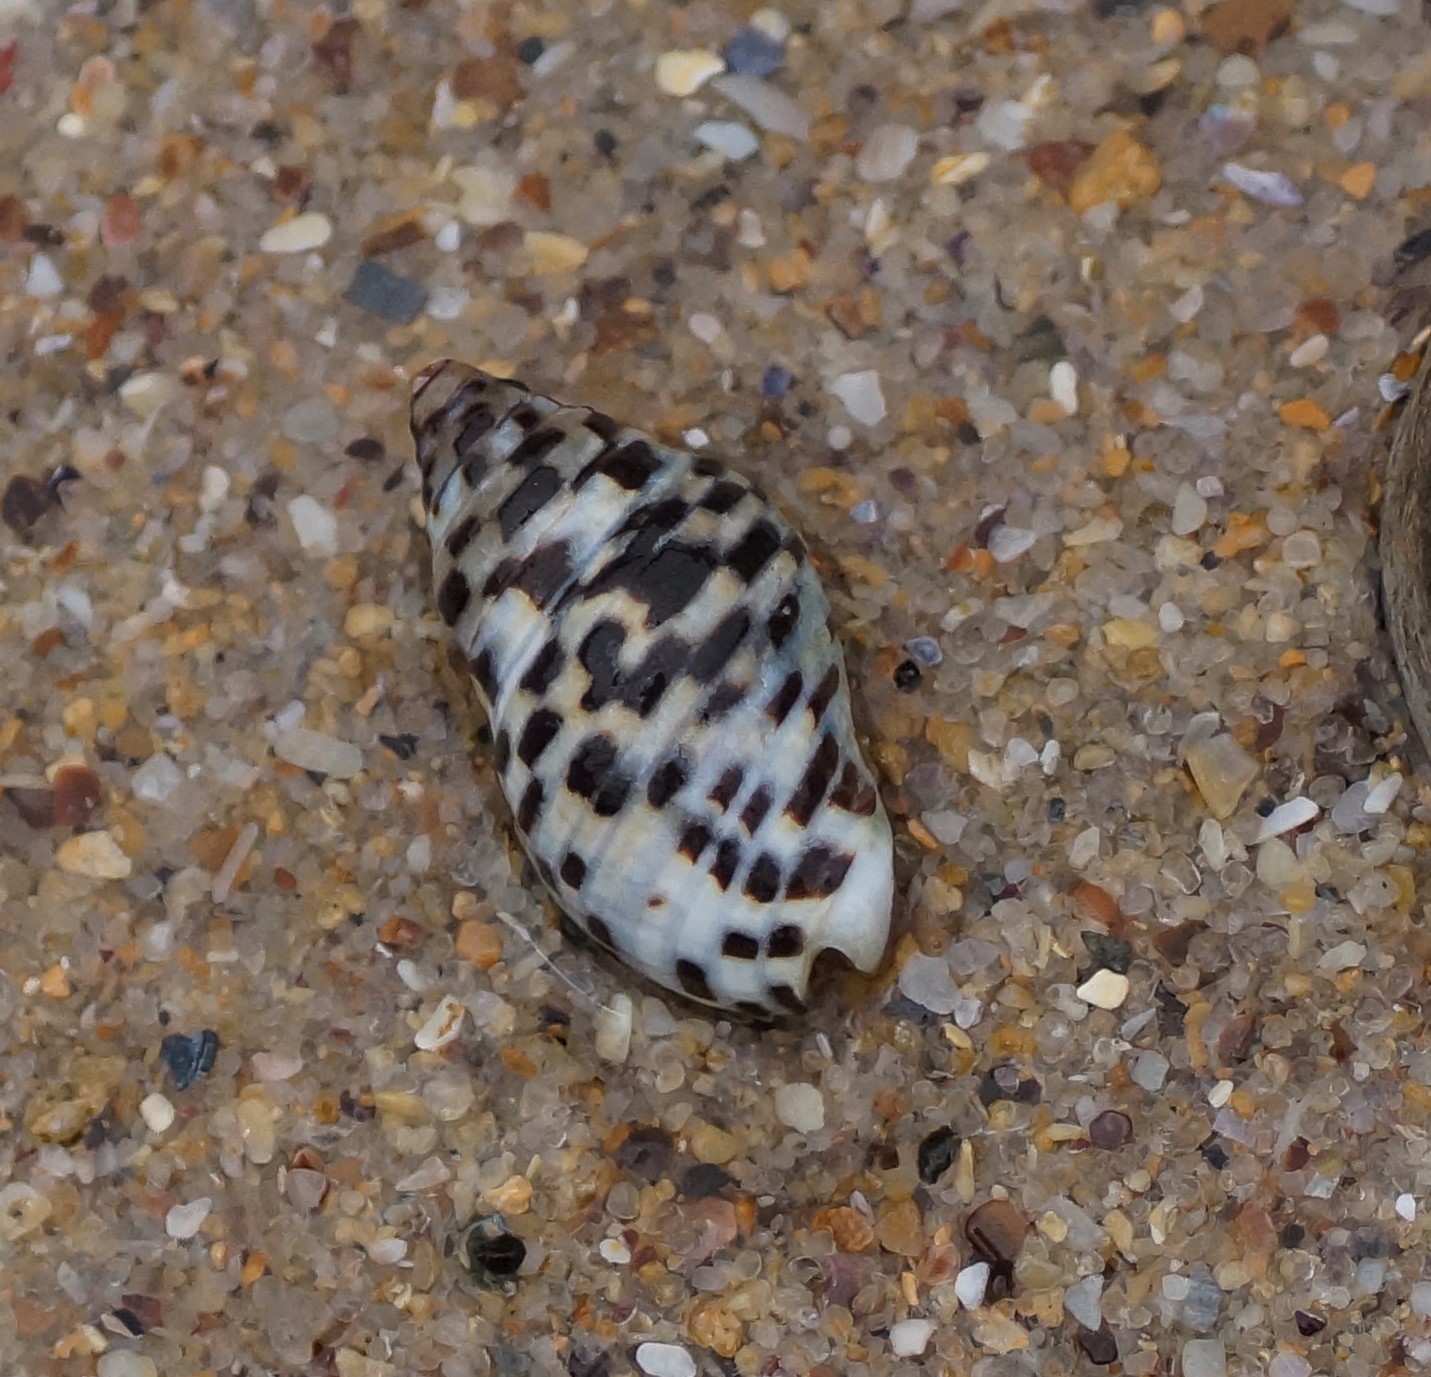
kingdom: Animalia
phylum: Mollusca
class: Gastropoda
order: Neogastropoda
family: Cominellidae
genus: Cominella
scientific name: Cominella lineolata
